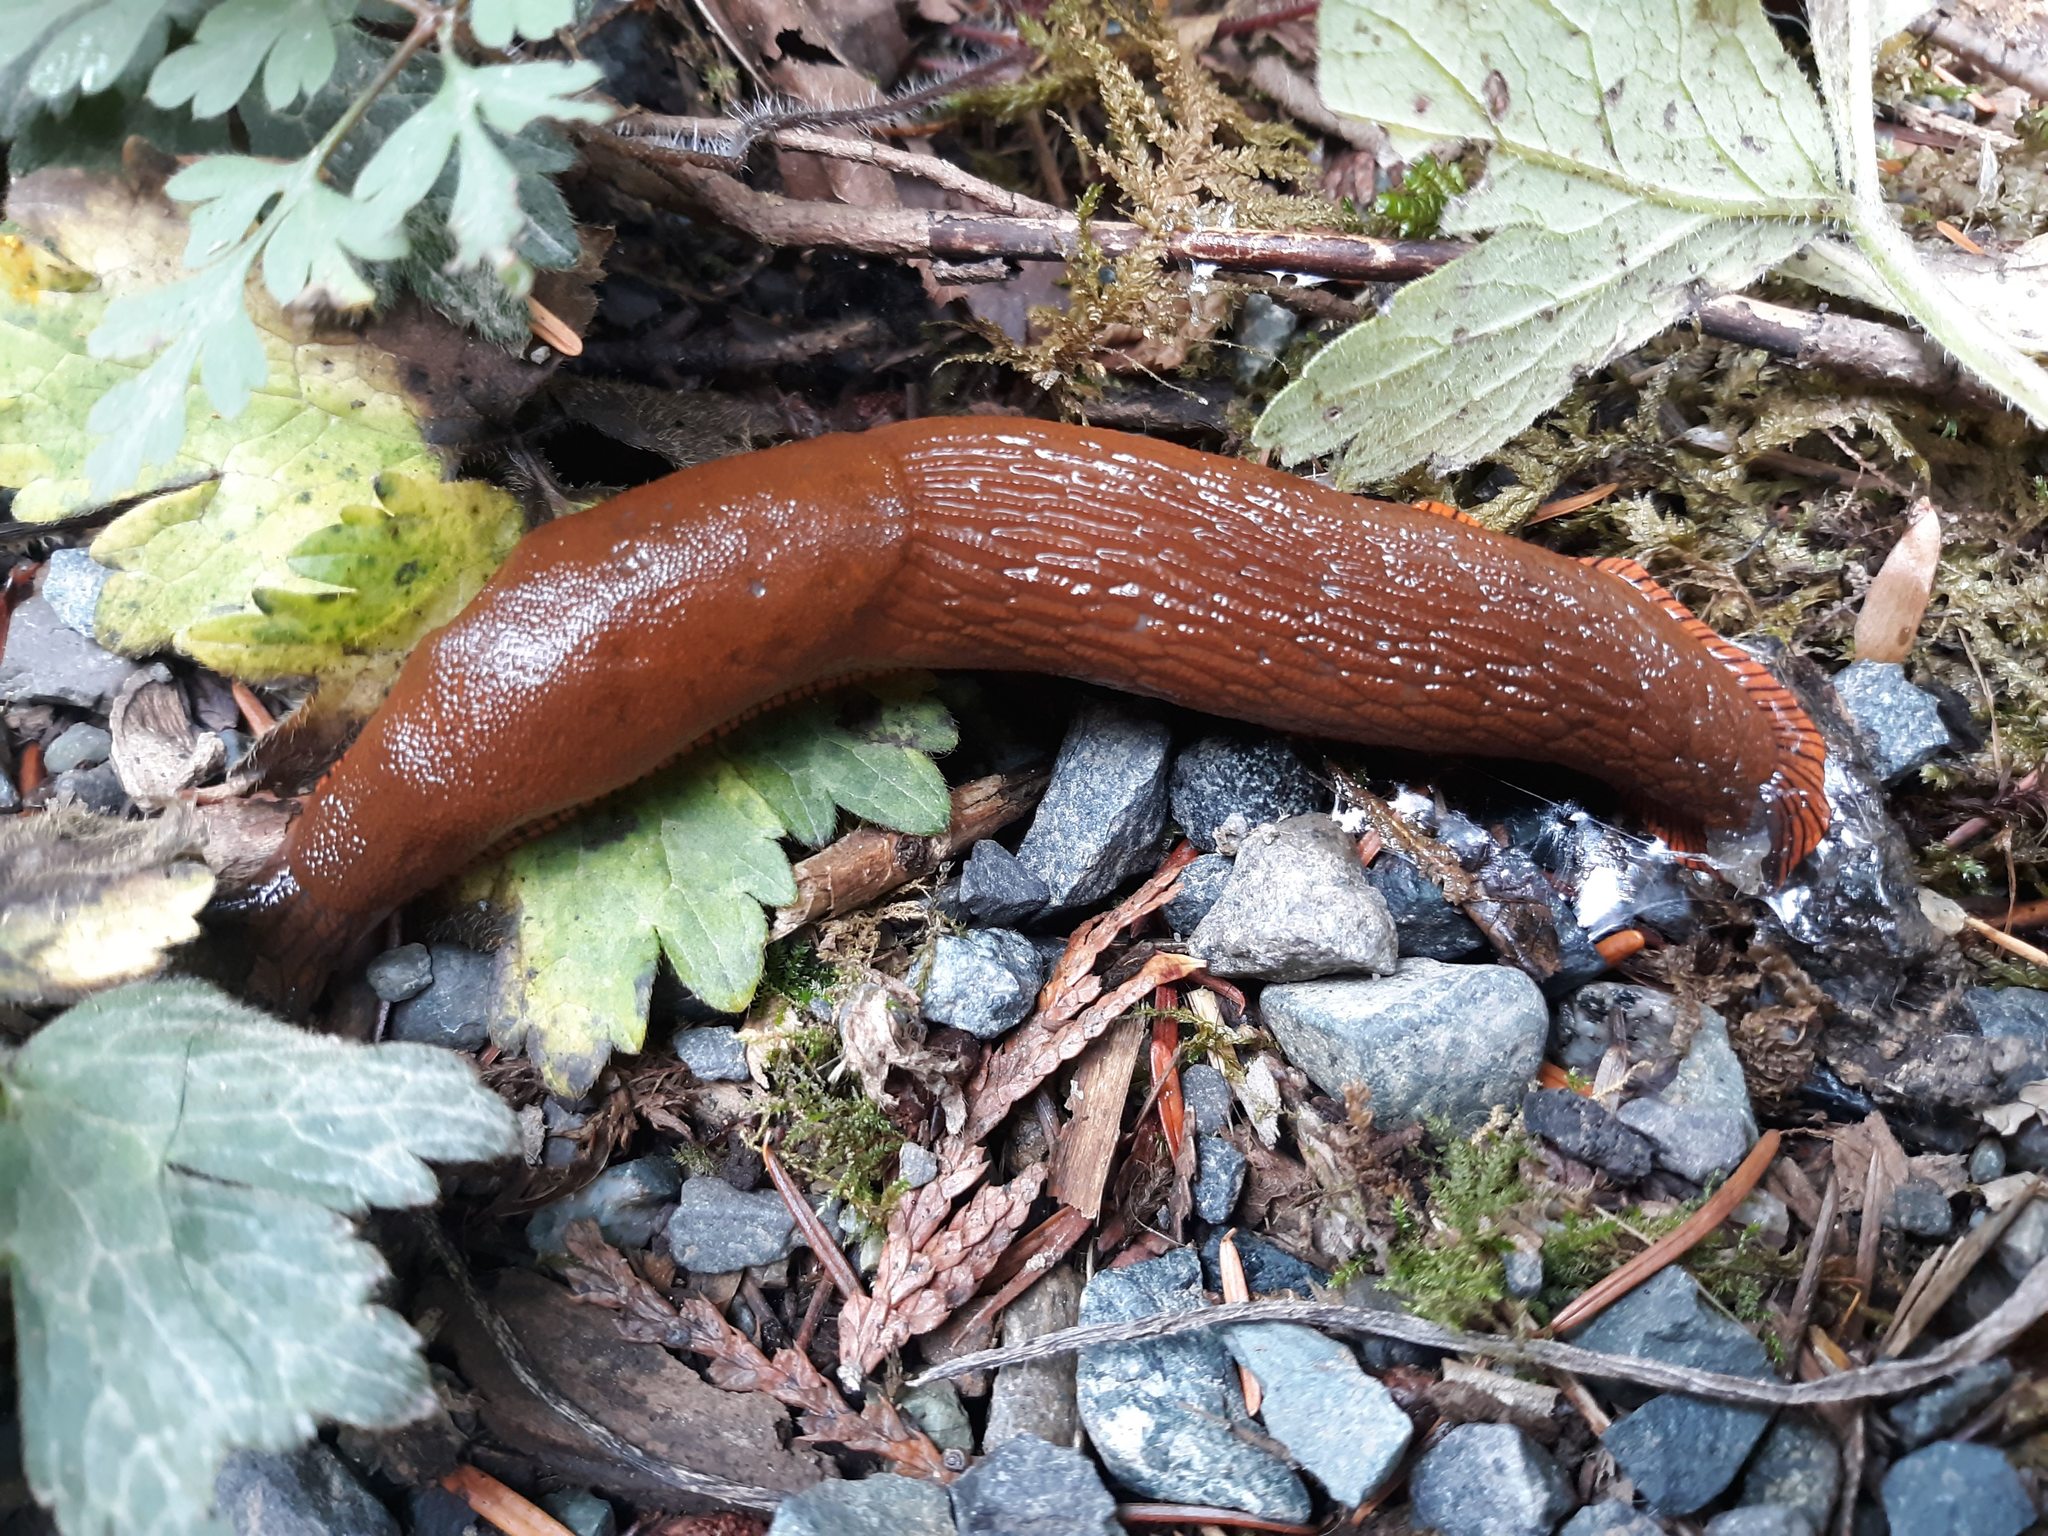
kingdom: Animalia
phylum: Mollusca
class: Gastropoda
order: Stylommatophora
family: Arionidae
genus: Arion
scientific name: Arion rufus
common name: Chocolate arion
